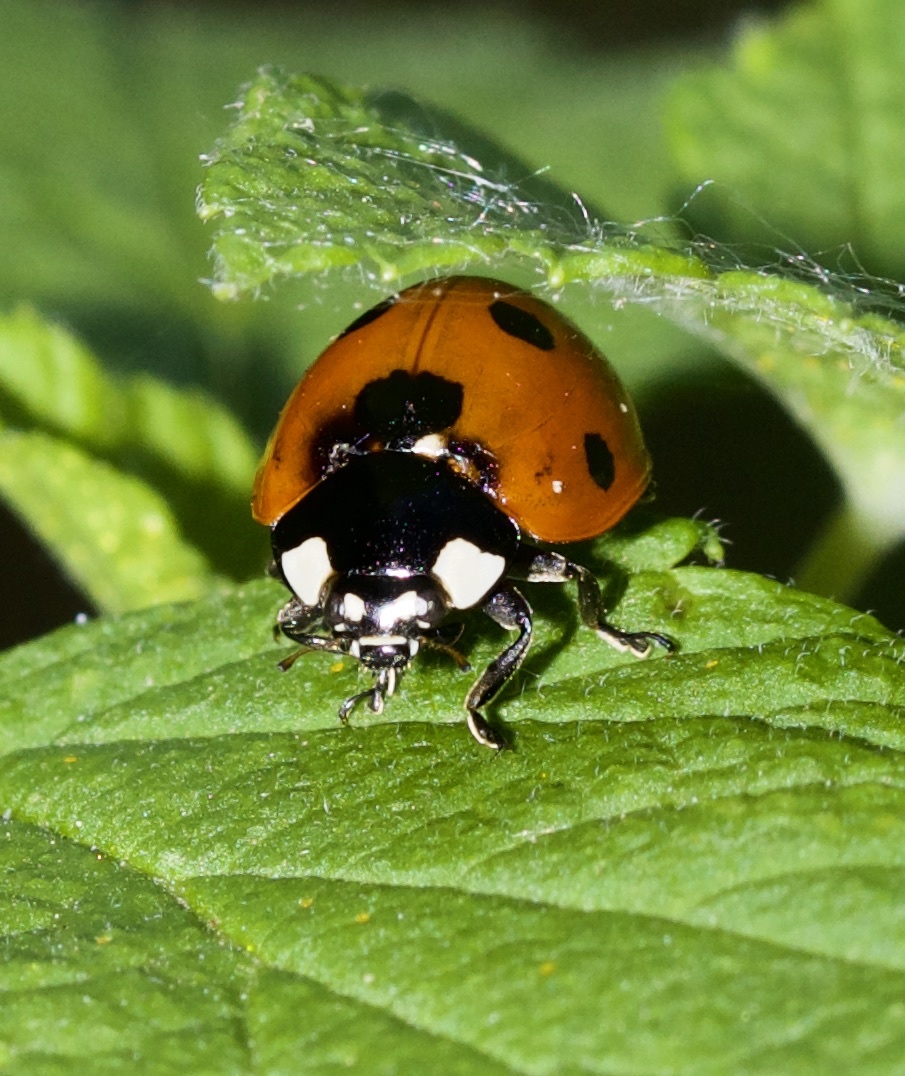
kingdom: Animalia
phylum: Arthropoda
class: Insecta
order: Coleoptera
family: Coccinellidae
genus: Coccinella
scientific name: Coccinella septempunctata
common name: Sevenspotted lady beetle
